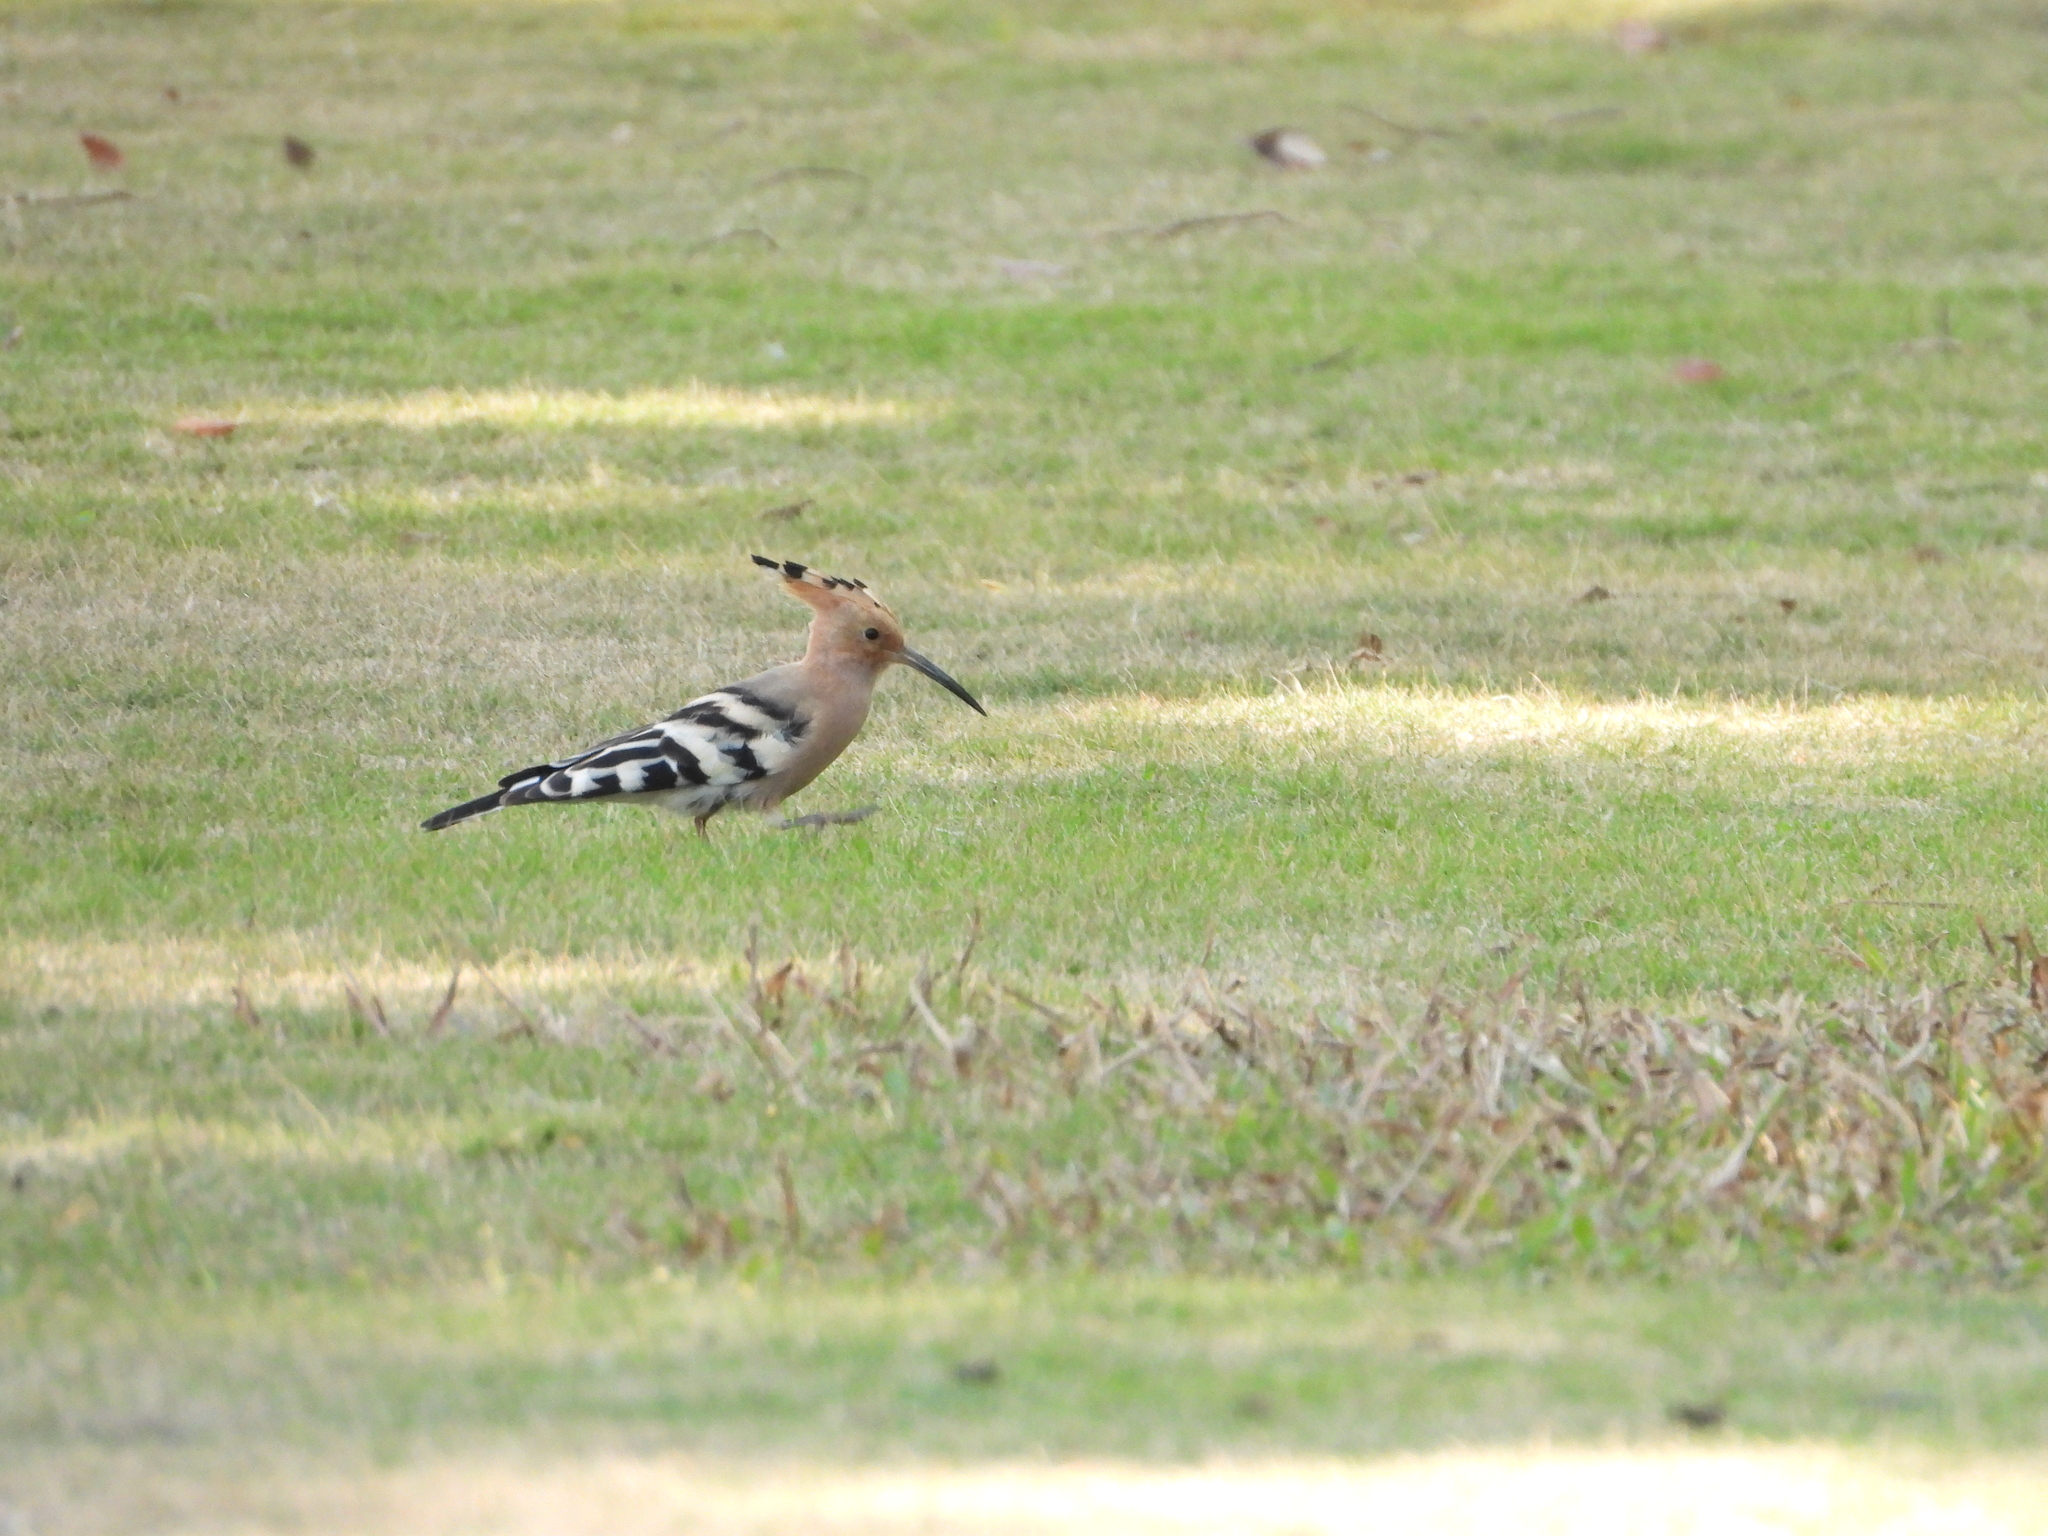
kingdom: Animalia
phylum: Chordata
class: Aves
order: Bucerotiformes
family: Upupidae
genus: Upupa
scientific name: Upupa epops
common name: Eurasian hoopoe
